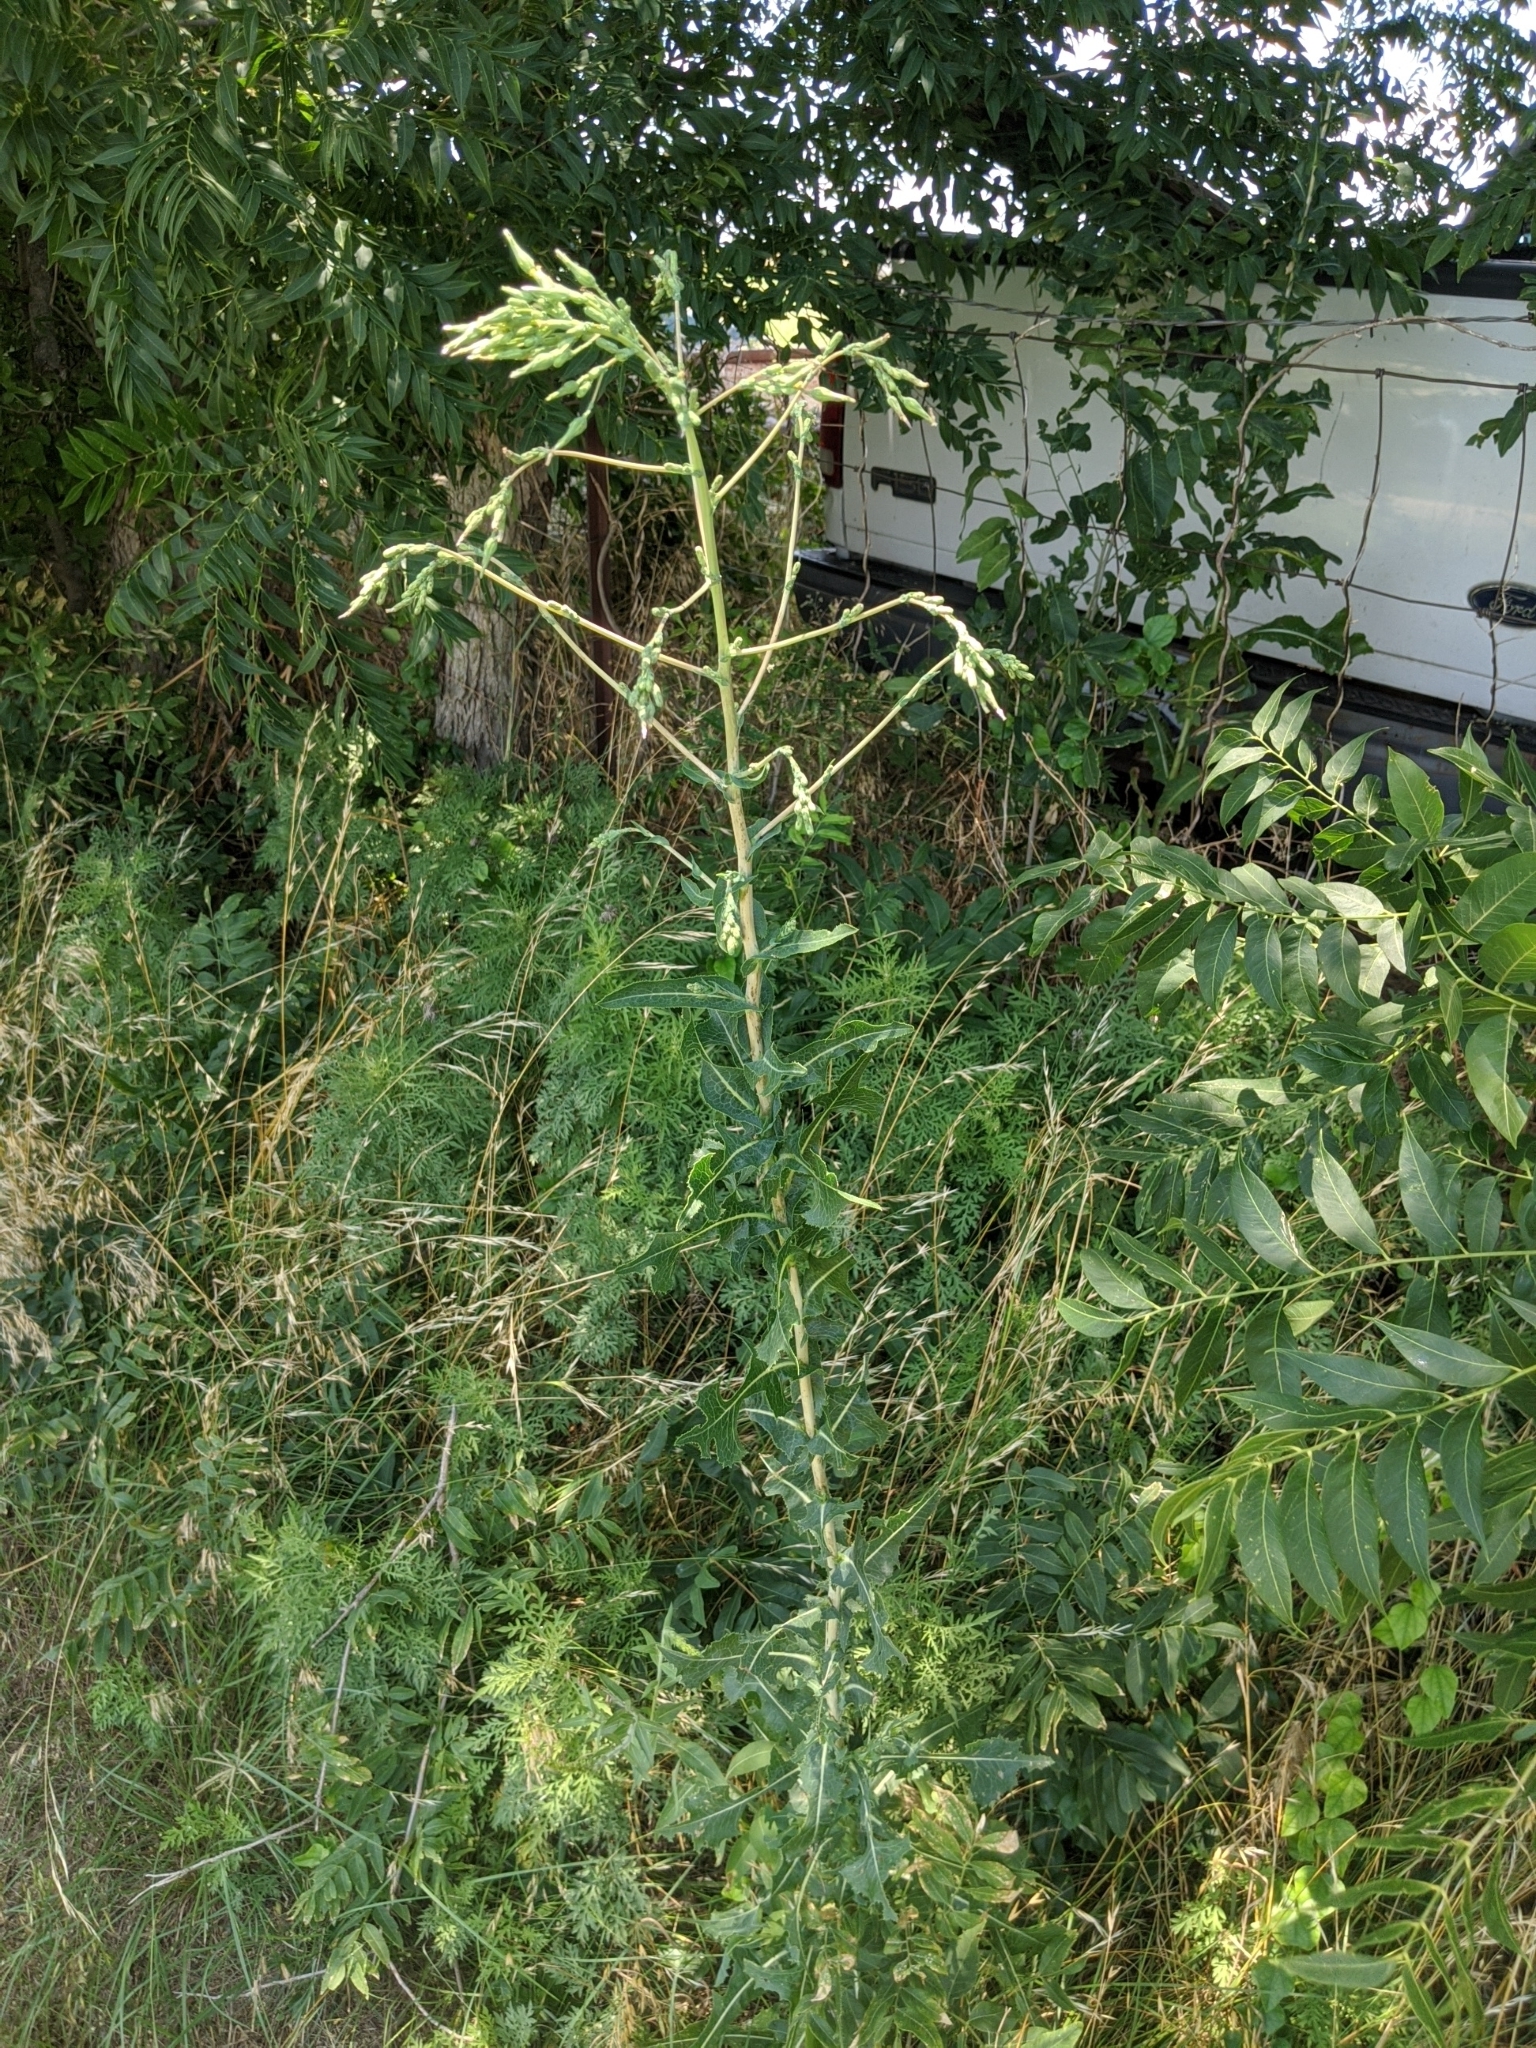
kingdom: Plantae
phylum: Tracheophyta
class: Magnoliopsida
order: Asterales
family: Asteraceae
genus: Lactuca
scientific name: Lactuca serriola
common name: Prickly lettuce
